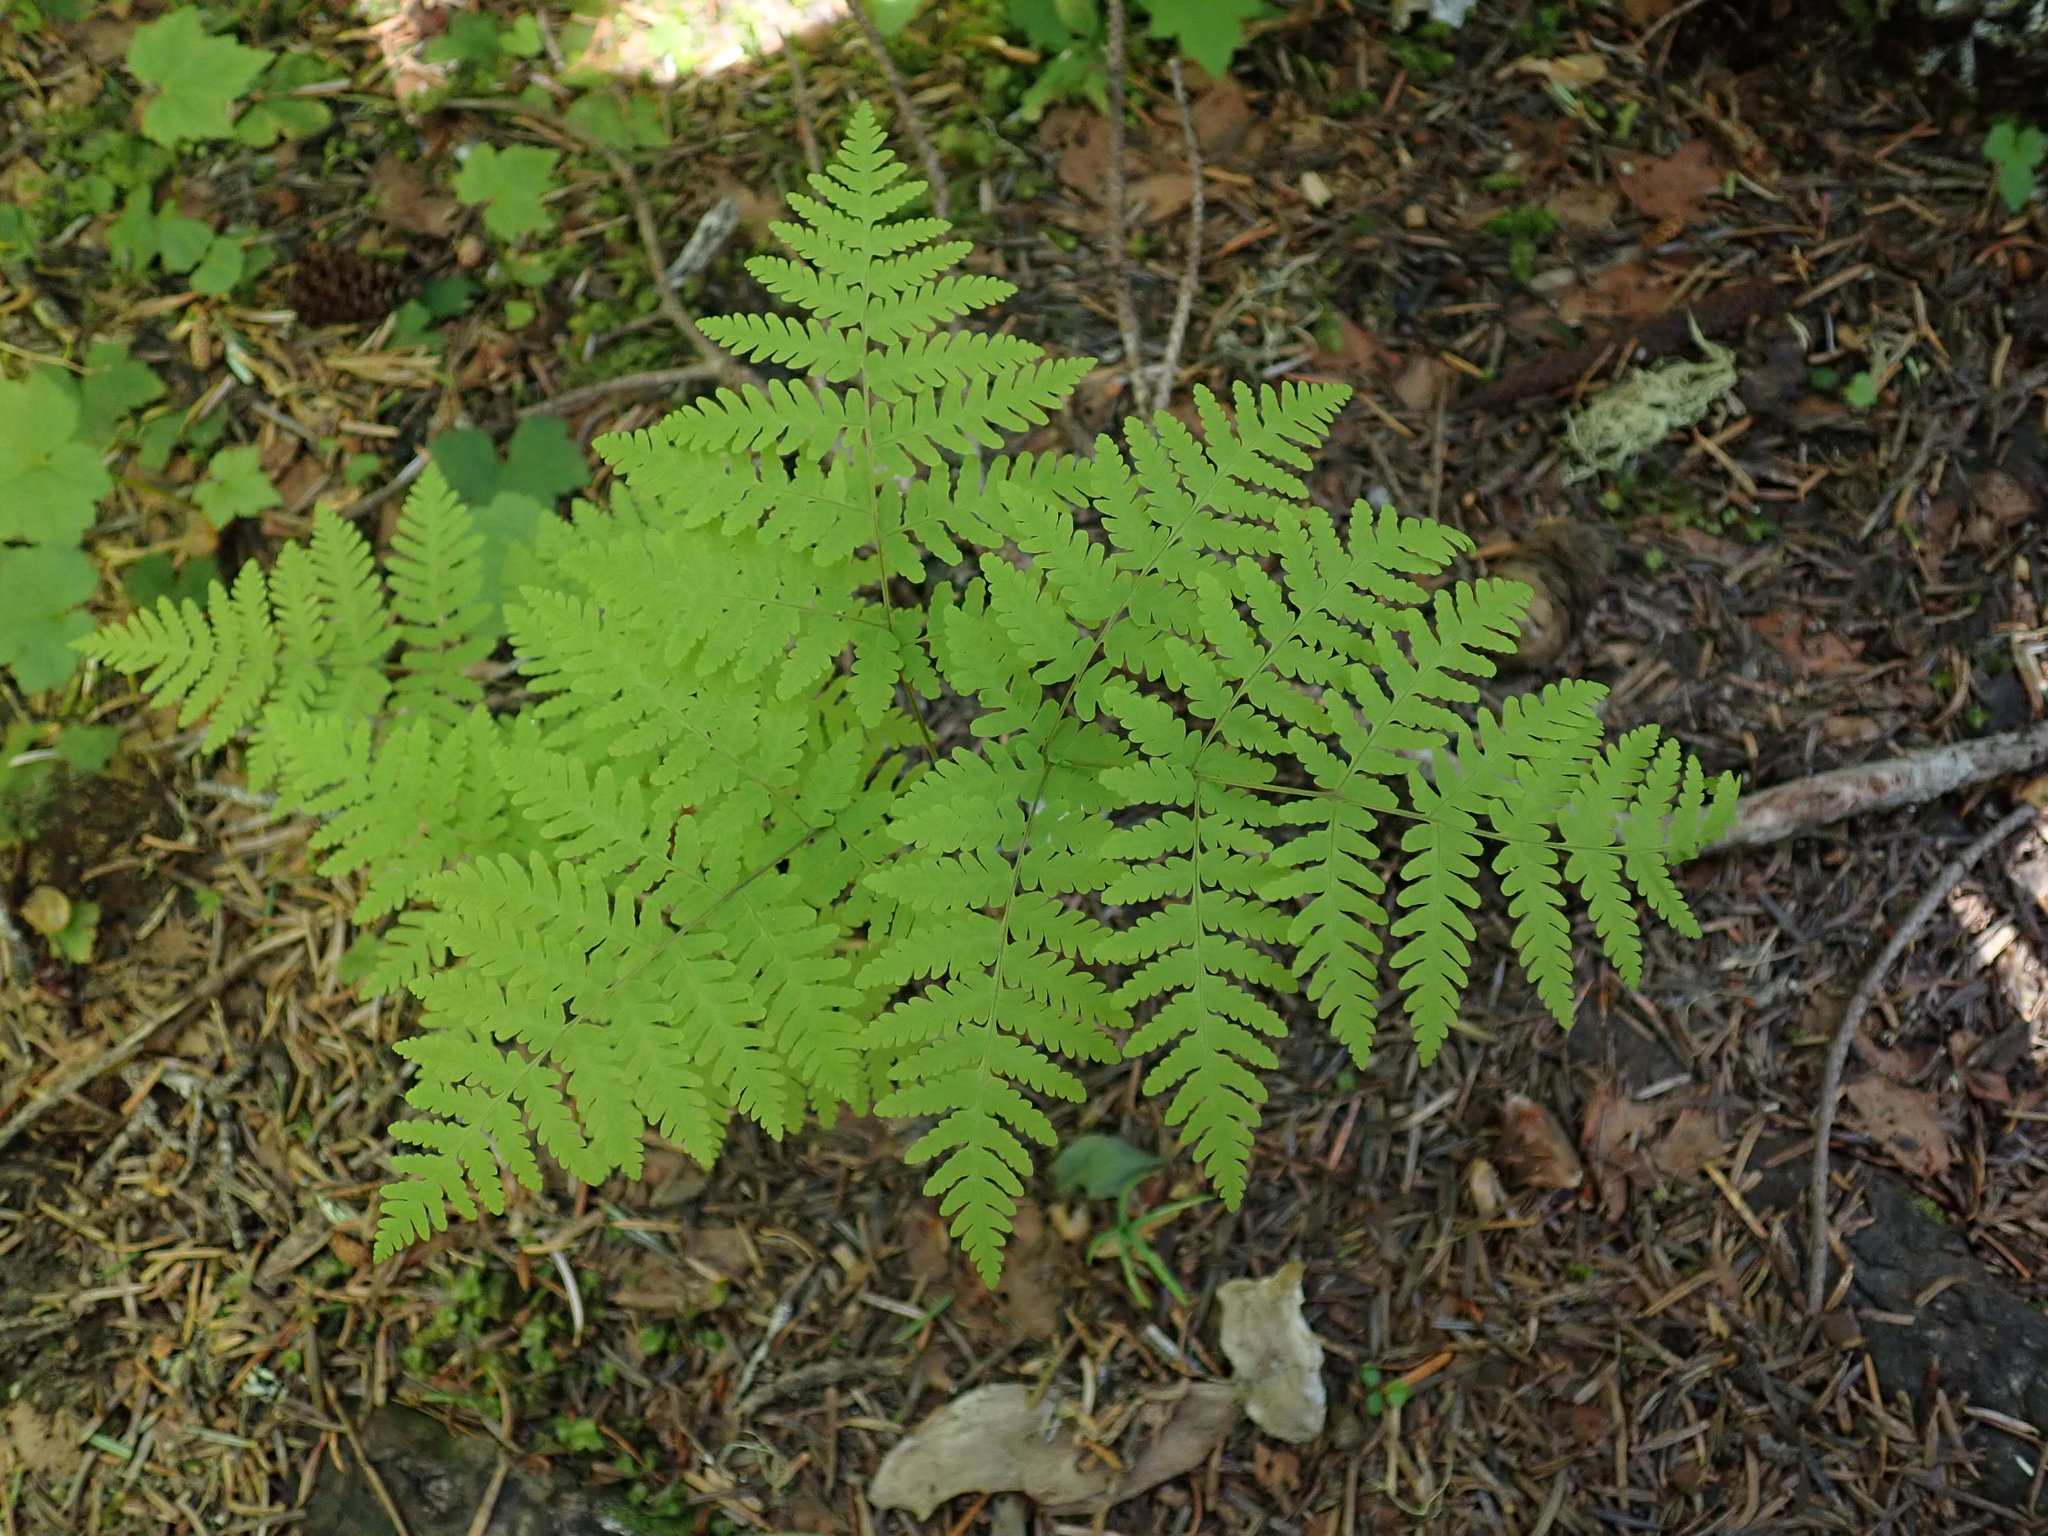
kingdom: Plantae
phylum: Tracheophyta
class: Polypodiopsida
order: Polypodiales
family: Cystopteridaceae
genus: Gymnocarpium
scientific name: Gymnocarpium dryopteris
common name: Oak fern
